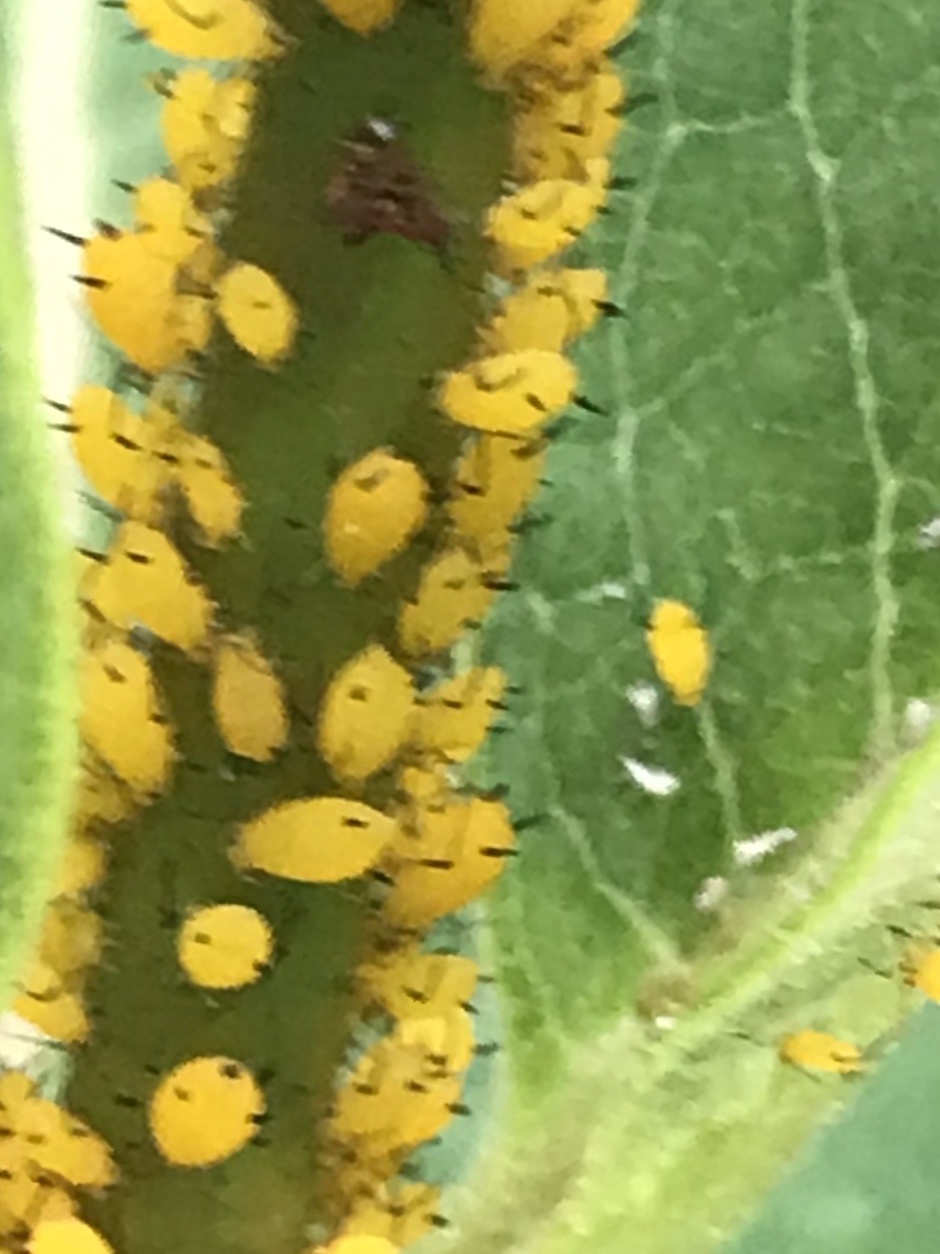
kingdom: Animalia
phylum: Arthropoda
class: Insecta
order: Hemiptera
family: Aphididae
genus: Aphis
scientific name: Aphis nerii
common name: Oleander aphid
